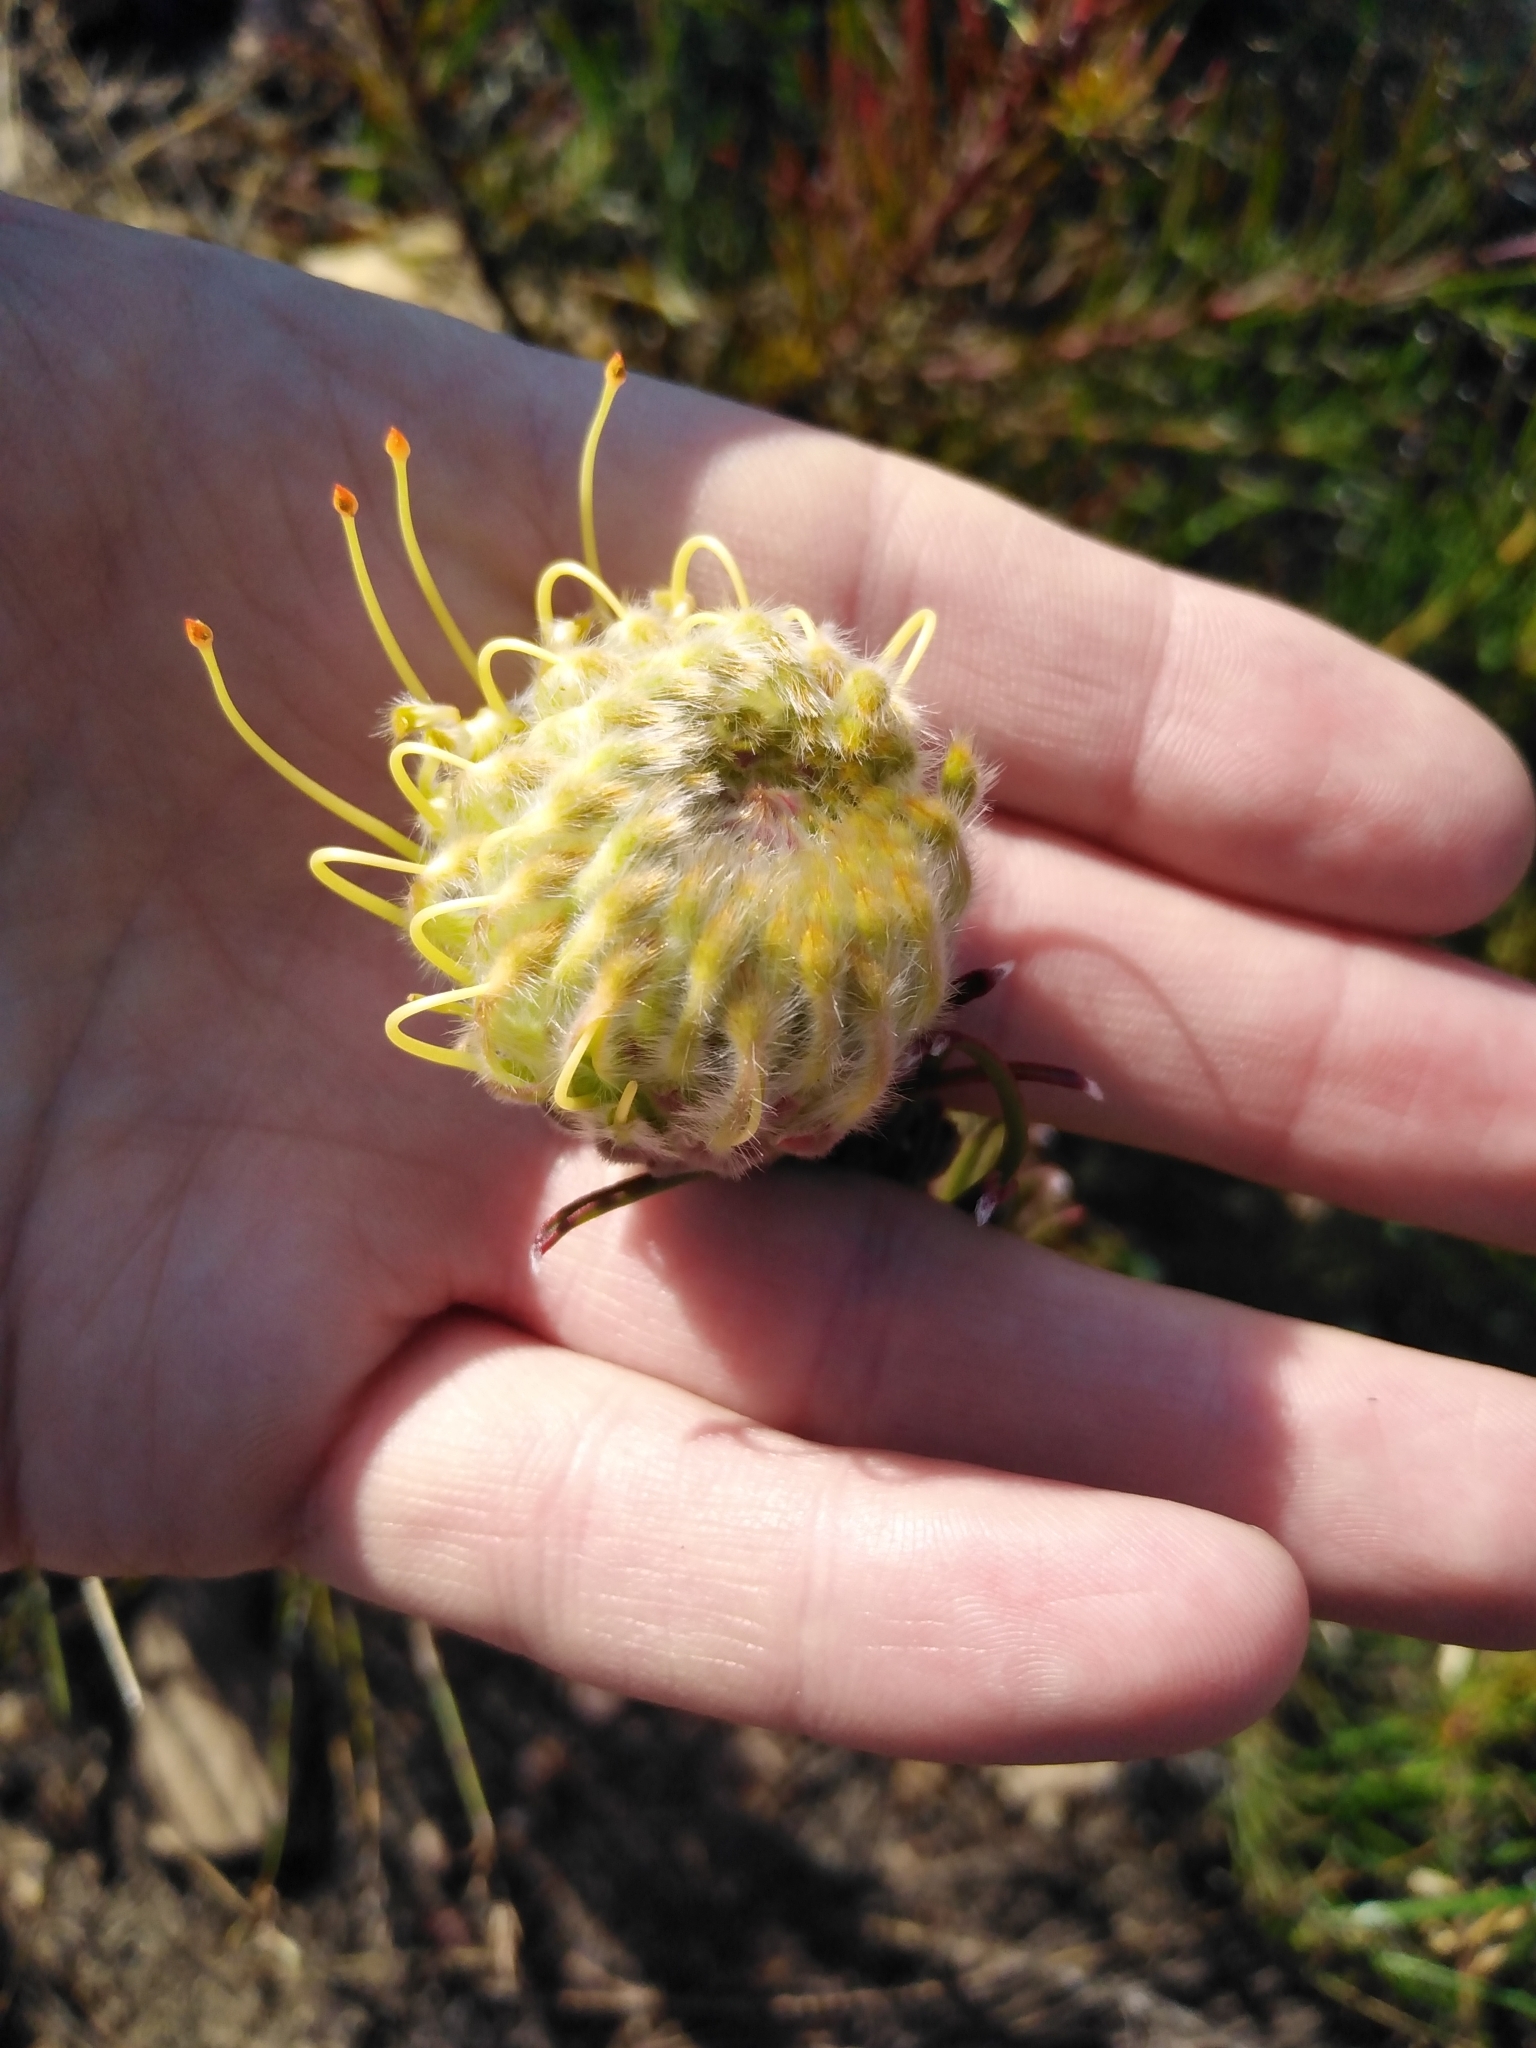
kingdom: Plantae
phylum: Tracheophyta
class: Magnoliopsida
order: Proteales
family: Proteaceae
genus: Leucospermum
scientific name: Leucospermum lineare
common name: Needle-leaf pincushion
